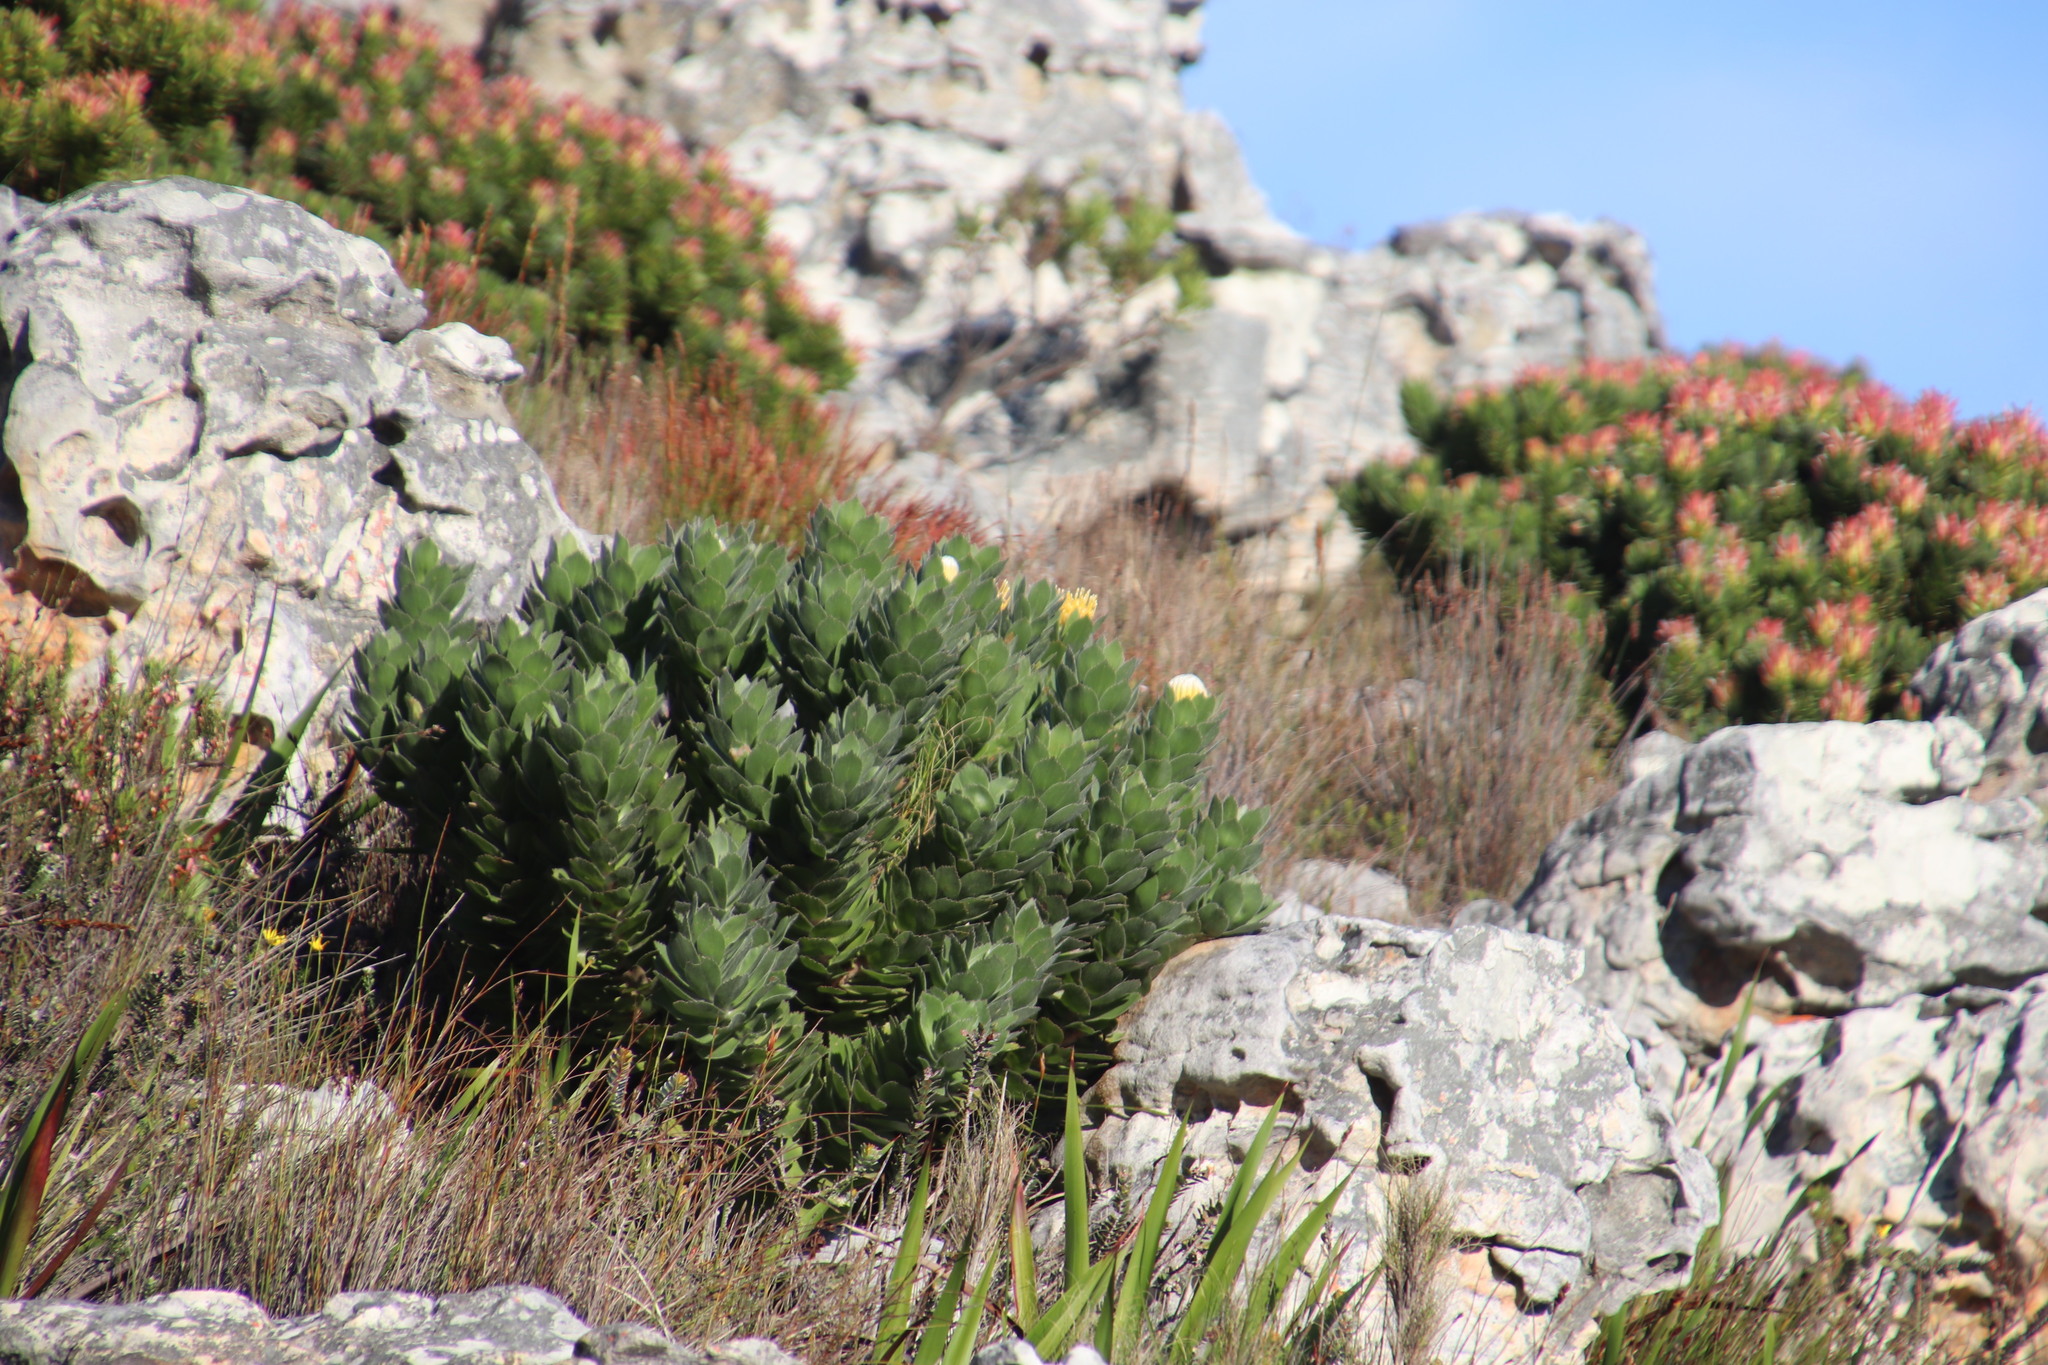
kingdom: Plantae
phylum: Tracheophyta
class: Magnoliopsida
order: Proteales
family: Proteaceae
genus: Leucospermum
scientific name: Leucospermum conocarpodendron
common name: Tree pincushion
